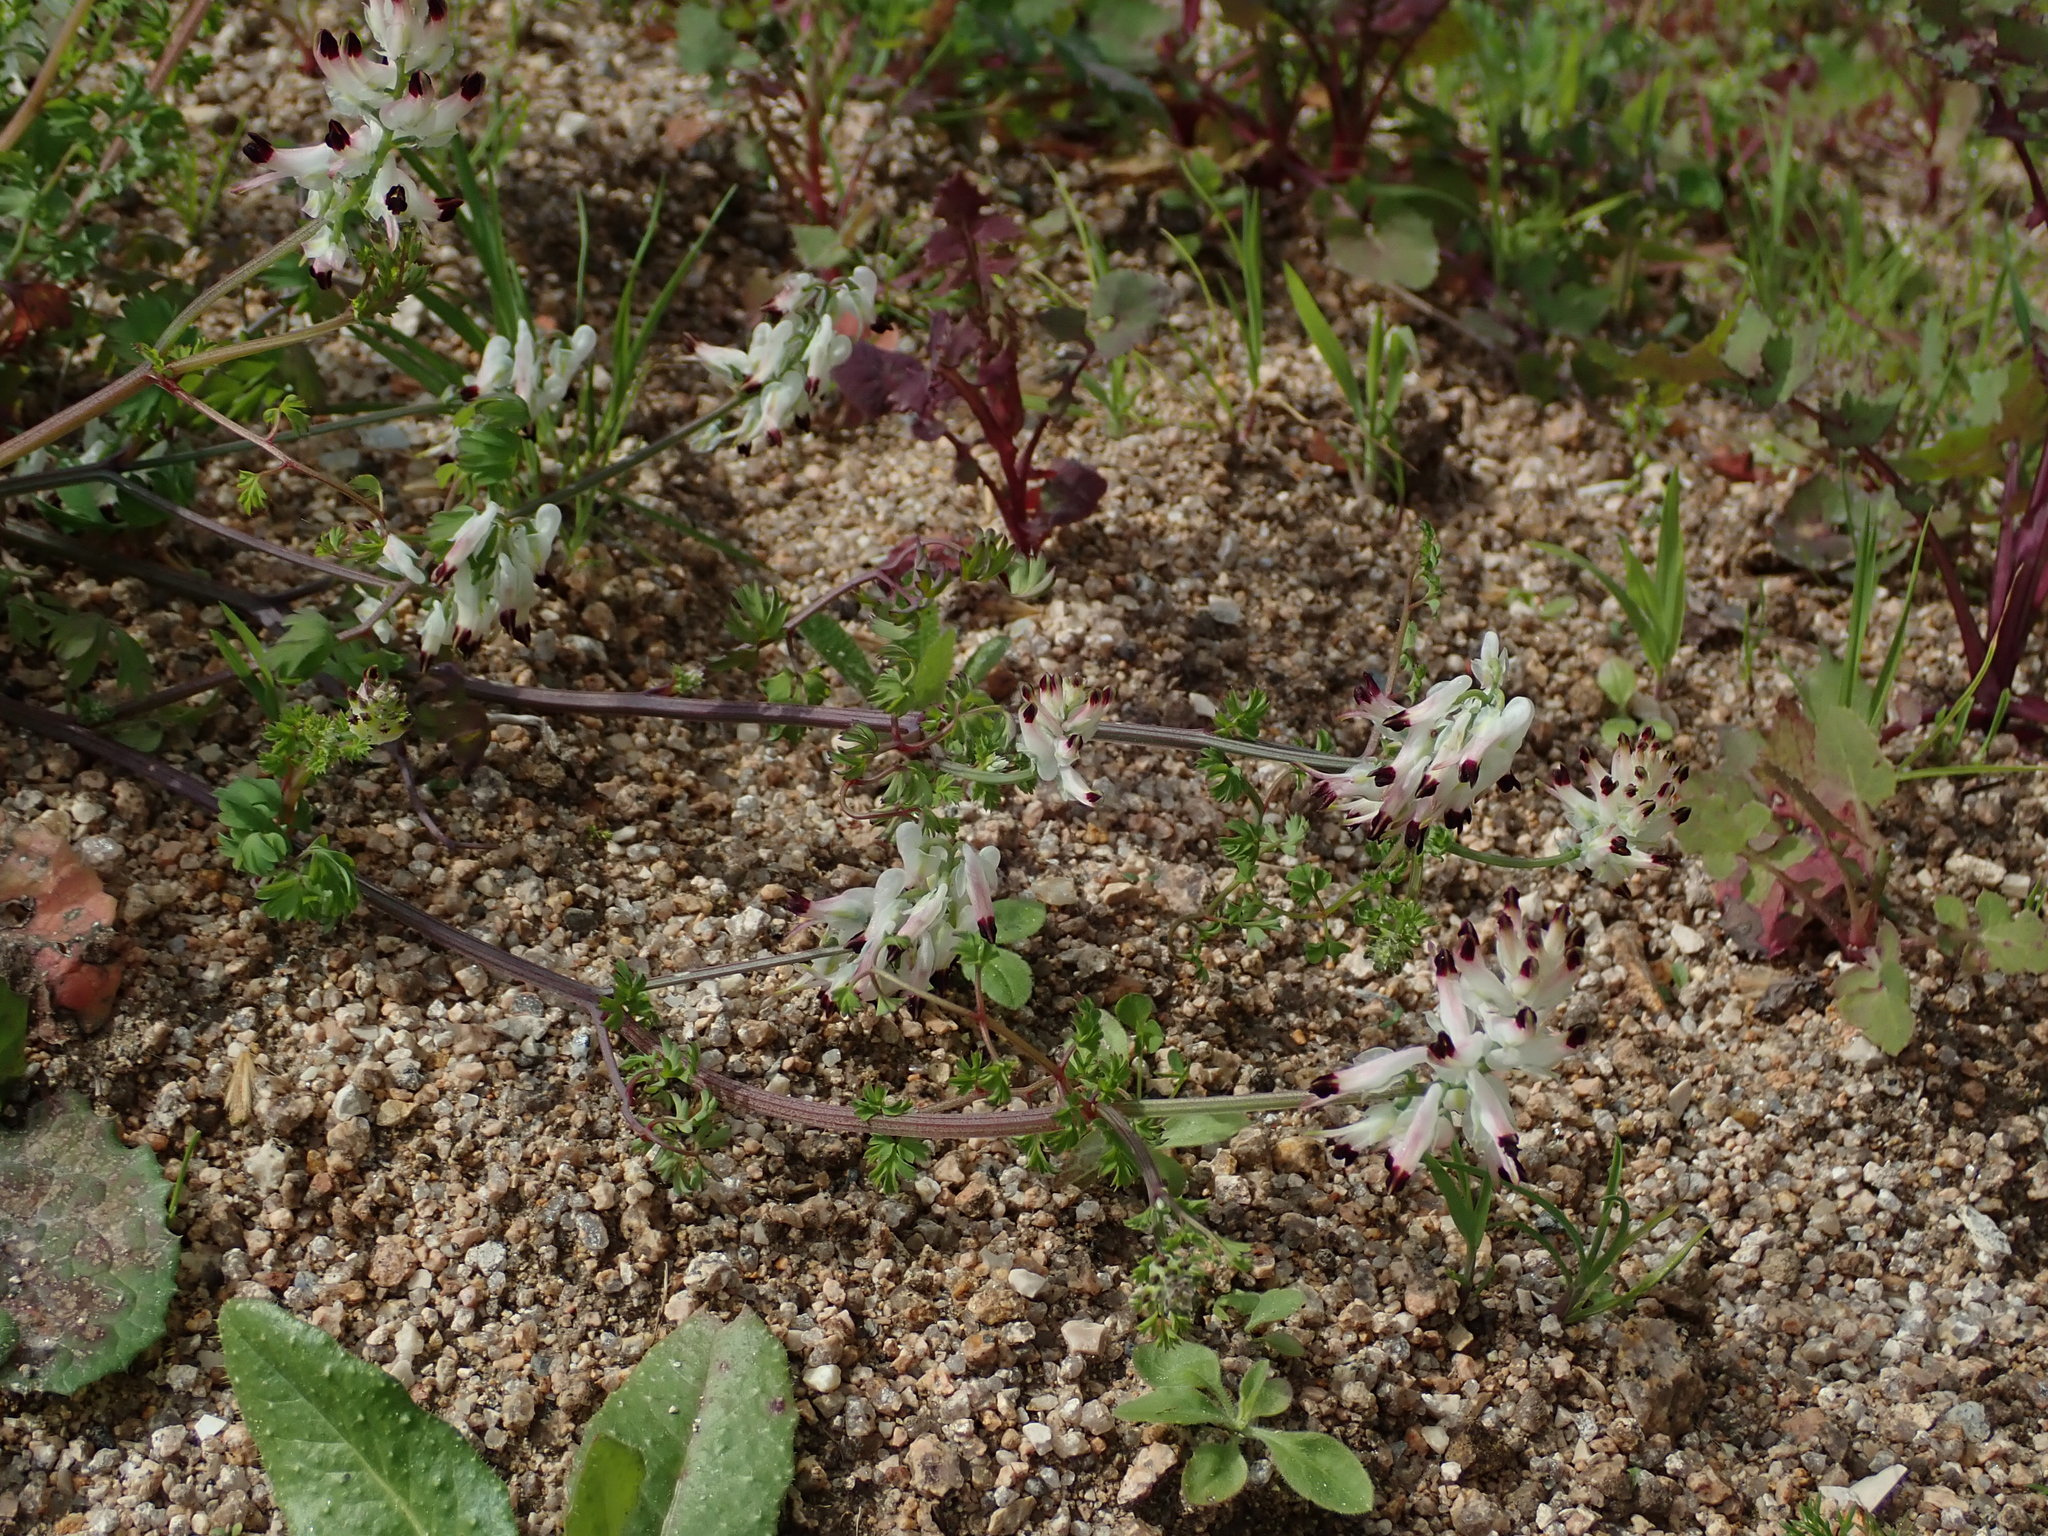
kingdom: Plantae
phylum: Tracheophyta
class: Magnoliopsida
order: Ranunculales
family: Papaveraceae
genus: Fumaria
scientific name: Fumaria capreolata
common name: White ramping-fumitory
